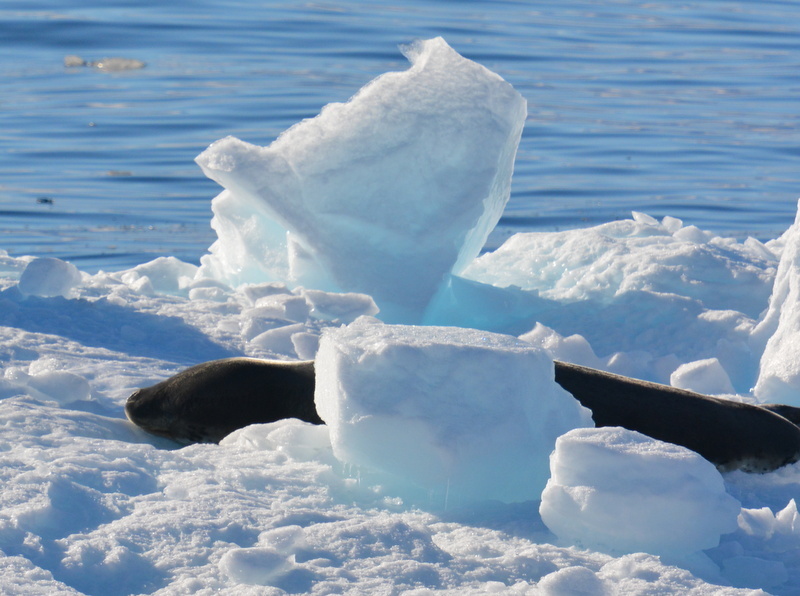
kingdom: Animalia
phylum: Chordata
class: Mammalia
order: Carnivora
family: Phocidae
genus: Hydrurga
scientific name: Hydrurga leptonyx
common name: Leopard seal
